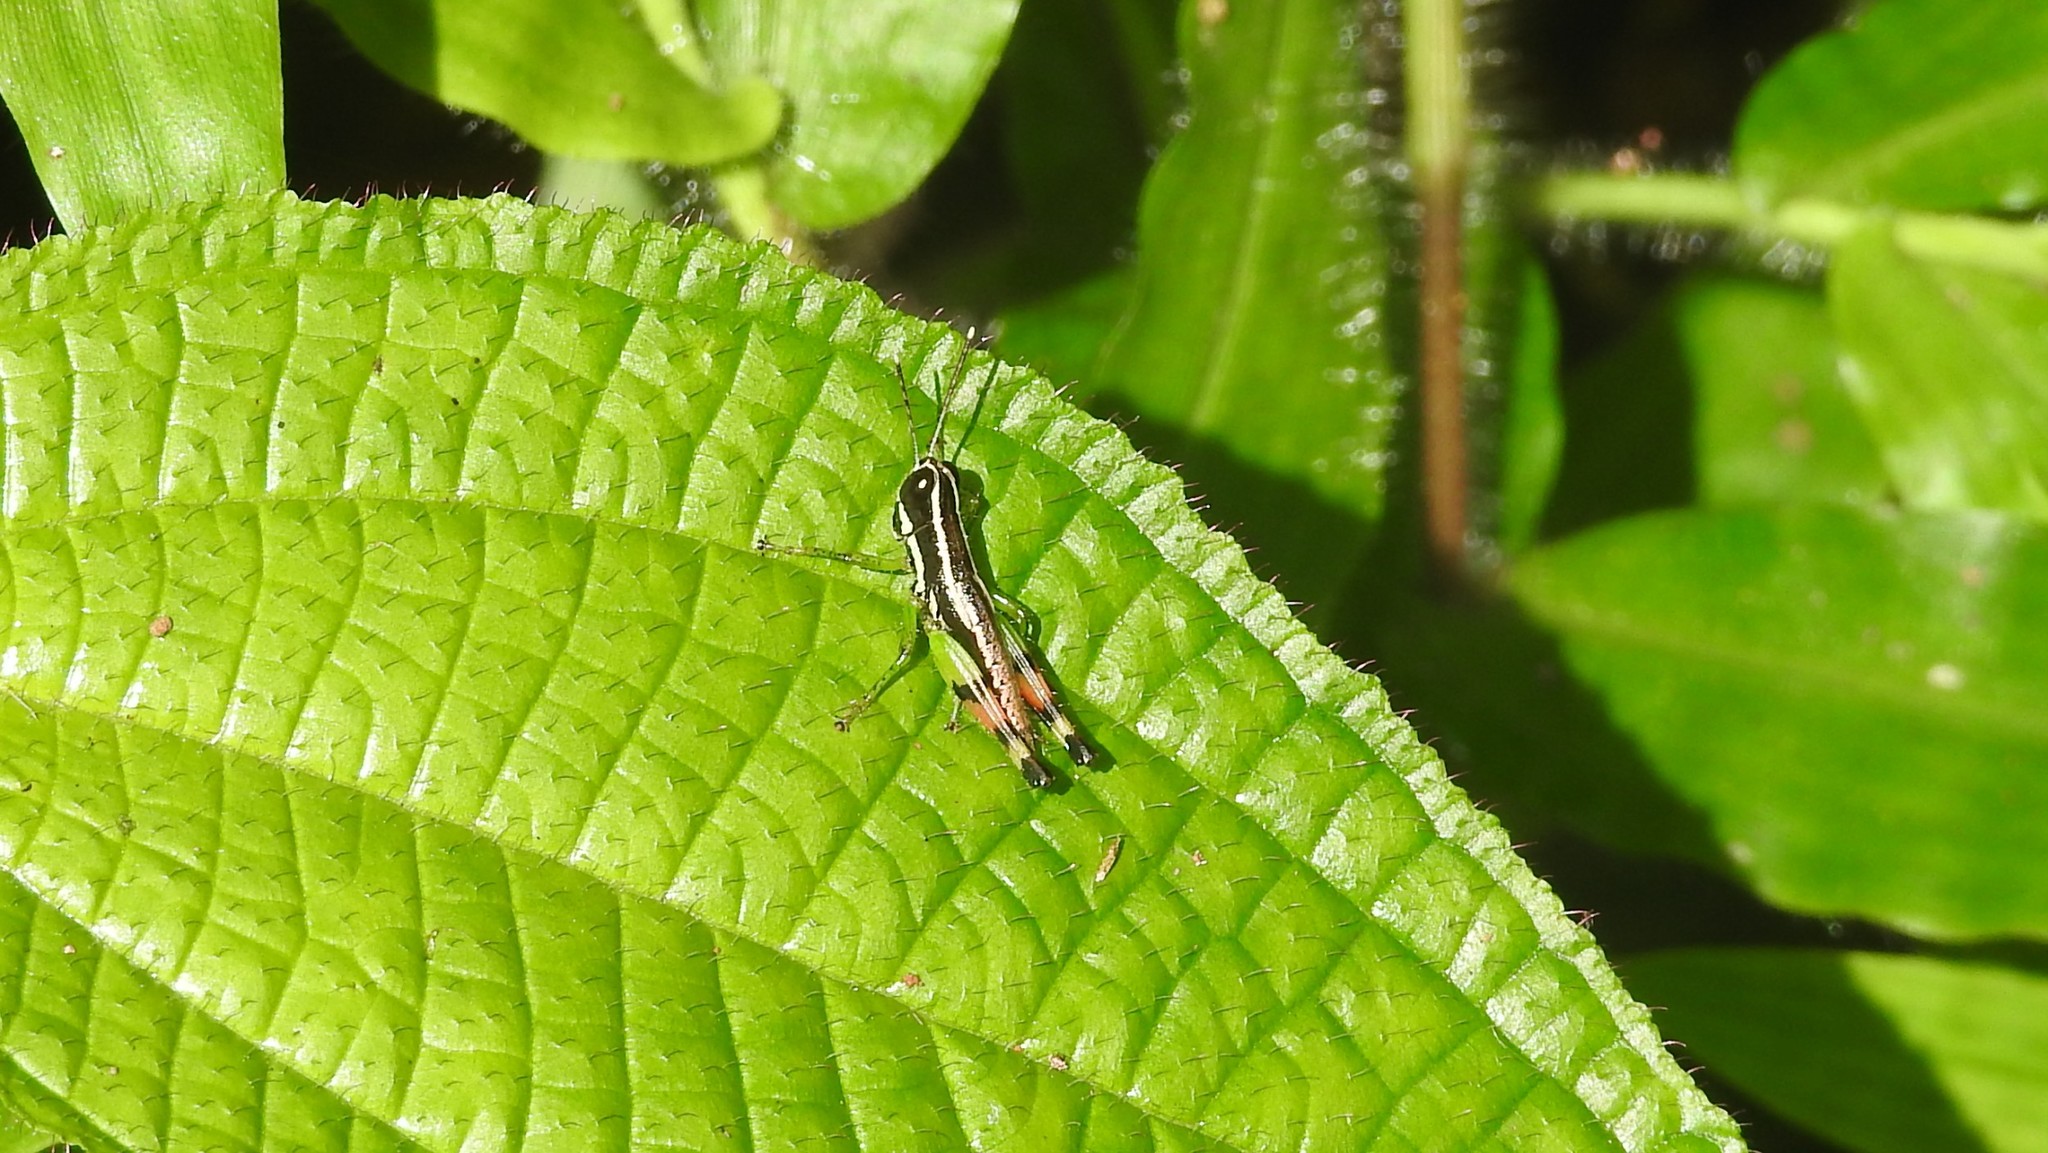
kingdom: Animalia
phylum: Arthropoda
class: Insecta
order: Orthoptera
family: Acrididae
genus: Chitaura
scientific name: Chitaura indica
